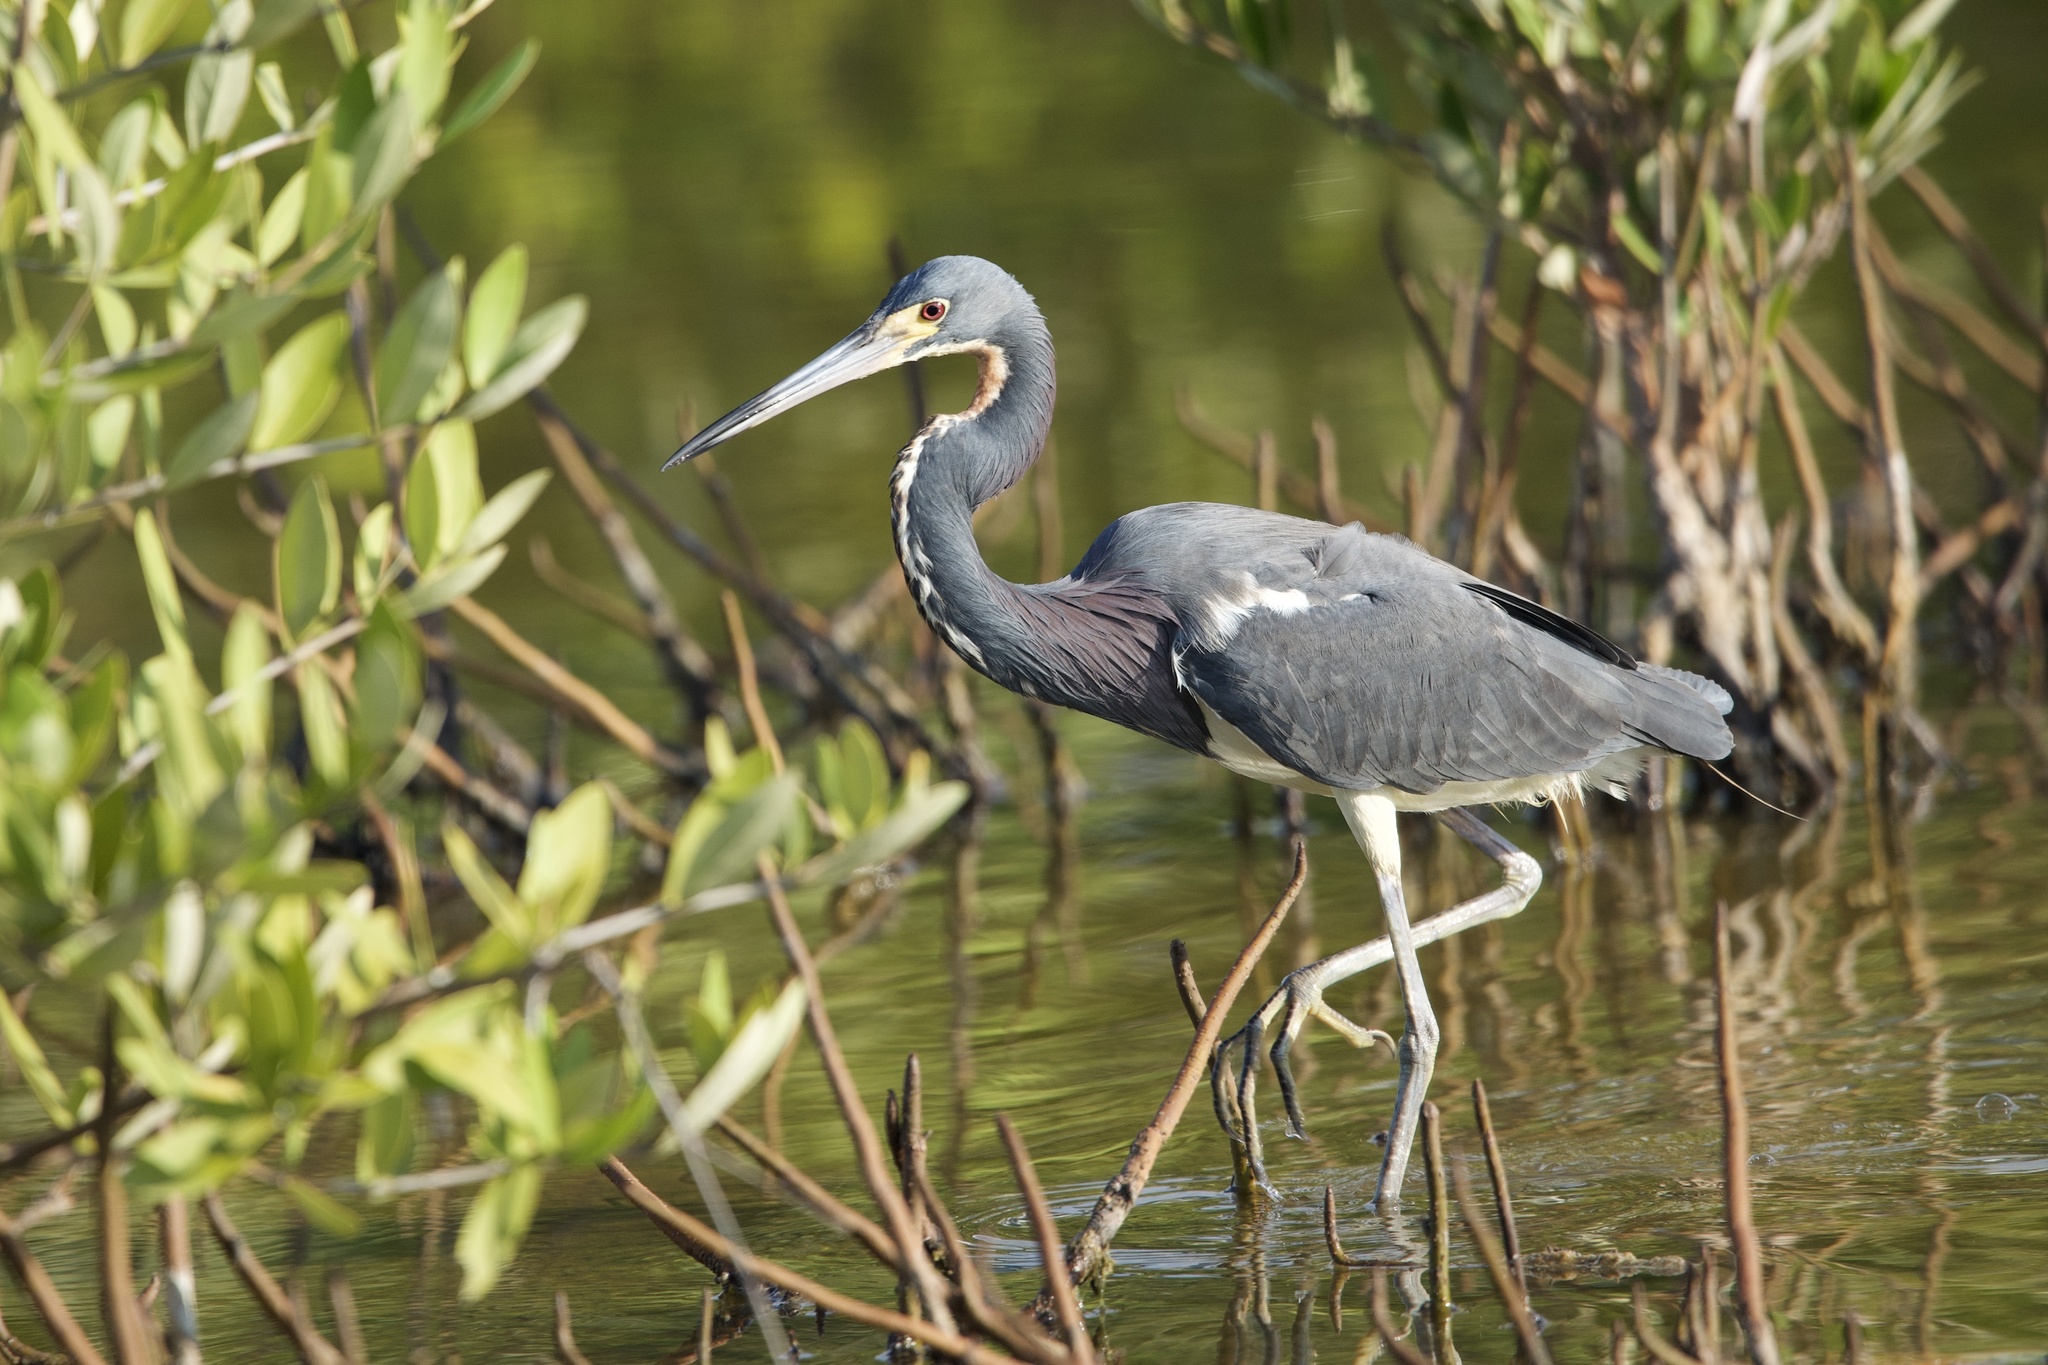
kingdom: Animalia
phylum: Chordata
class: Aves
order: Pelecaniformes
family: Ardeidae
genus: Egretta
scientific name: Egretta tricolor
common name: Tricolored heron
